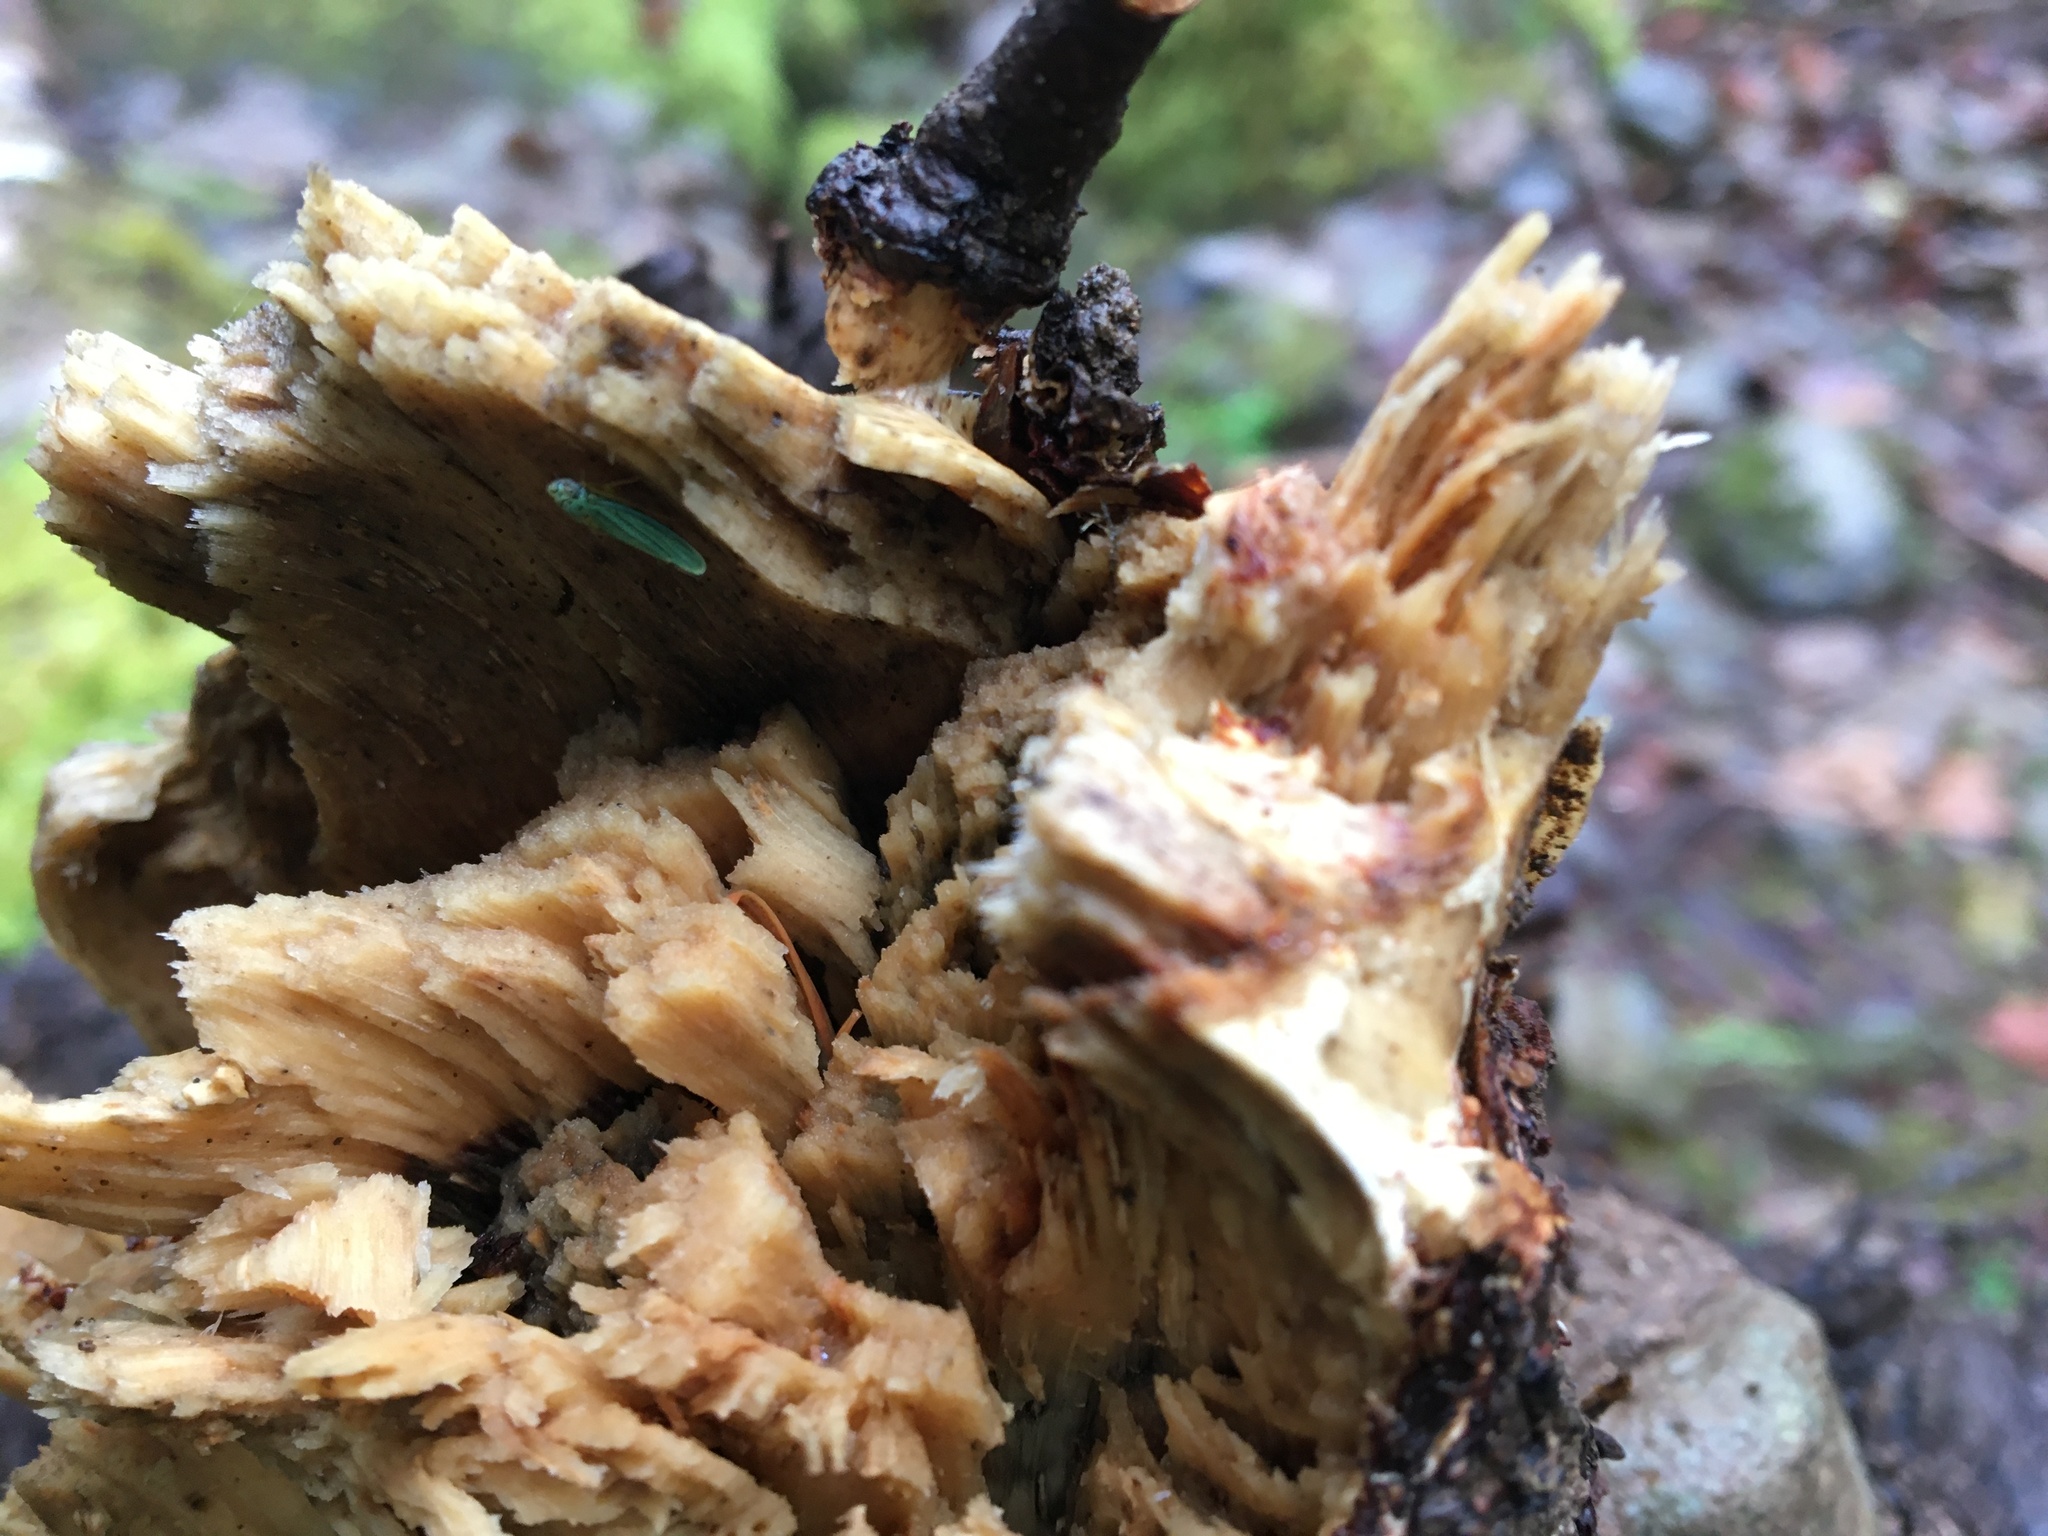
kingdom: Animalia
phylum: Arthropoda
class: Insecta
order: Hemiptera
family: Cicadellidae
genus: Graphocephala
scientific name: Graphocephala atropunctata
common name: Blue-green sharpshooter
